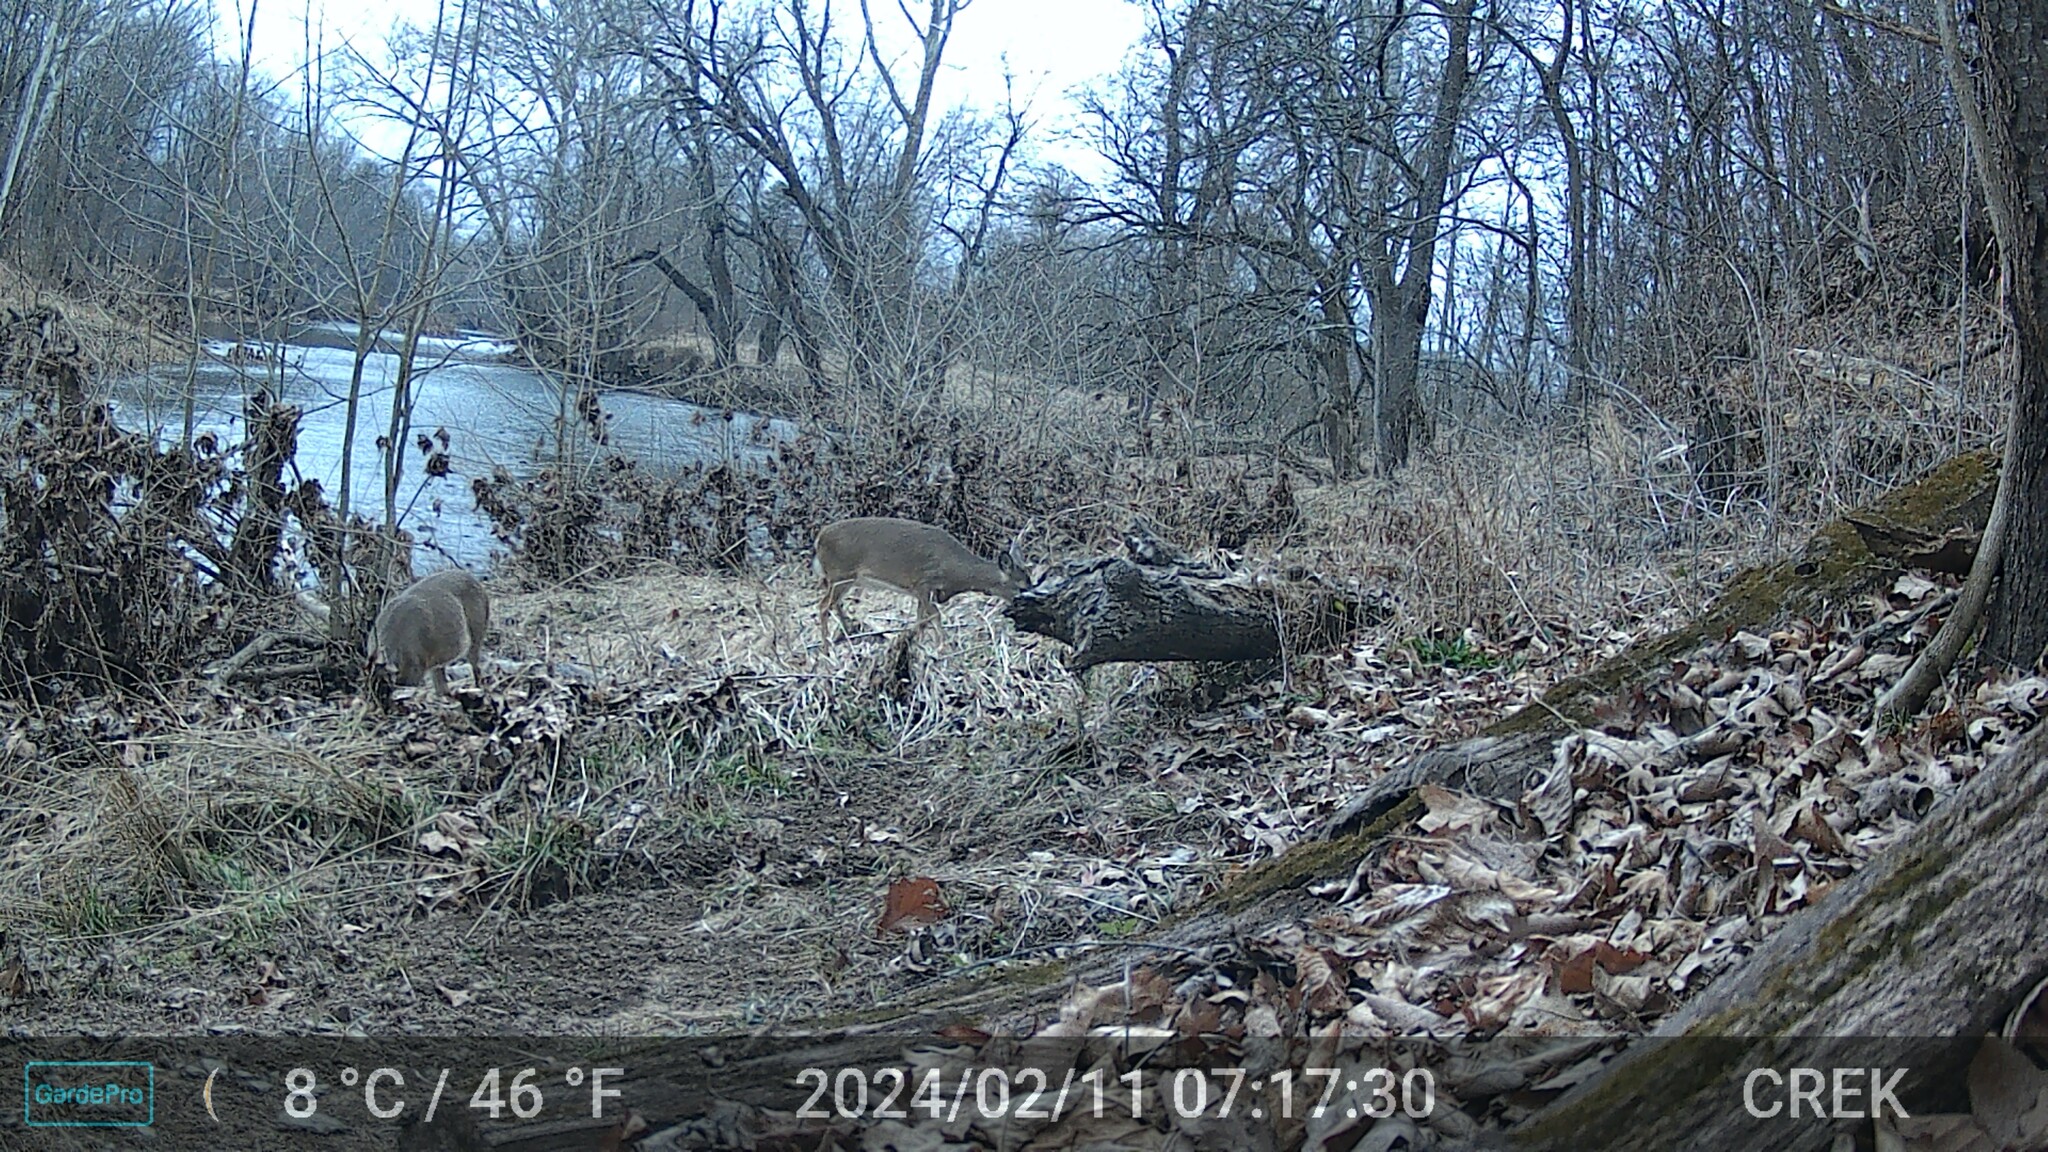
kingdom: Animalia
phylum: Chordata
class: Mammalia
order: Artiodactyla
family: Cervidae
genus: Odocoileus
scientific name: Odocoileus virginianus
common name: White-tailed deer
